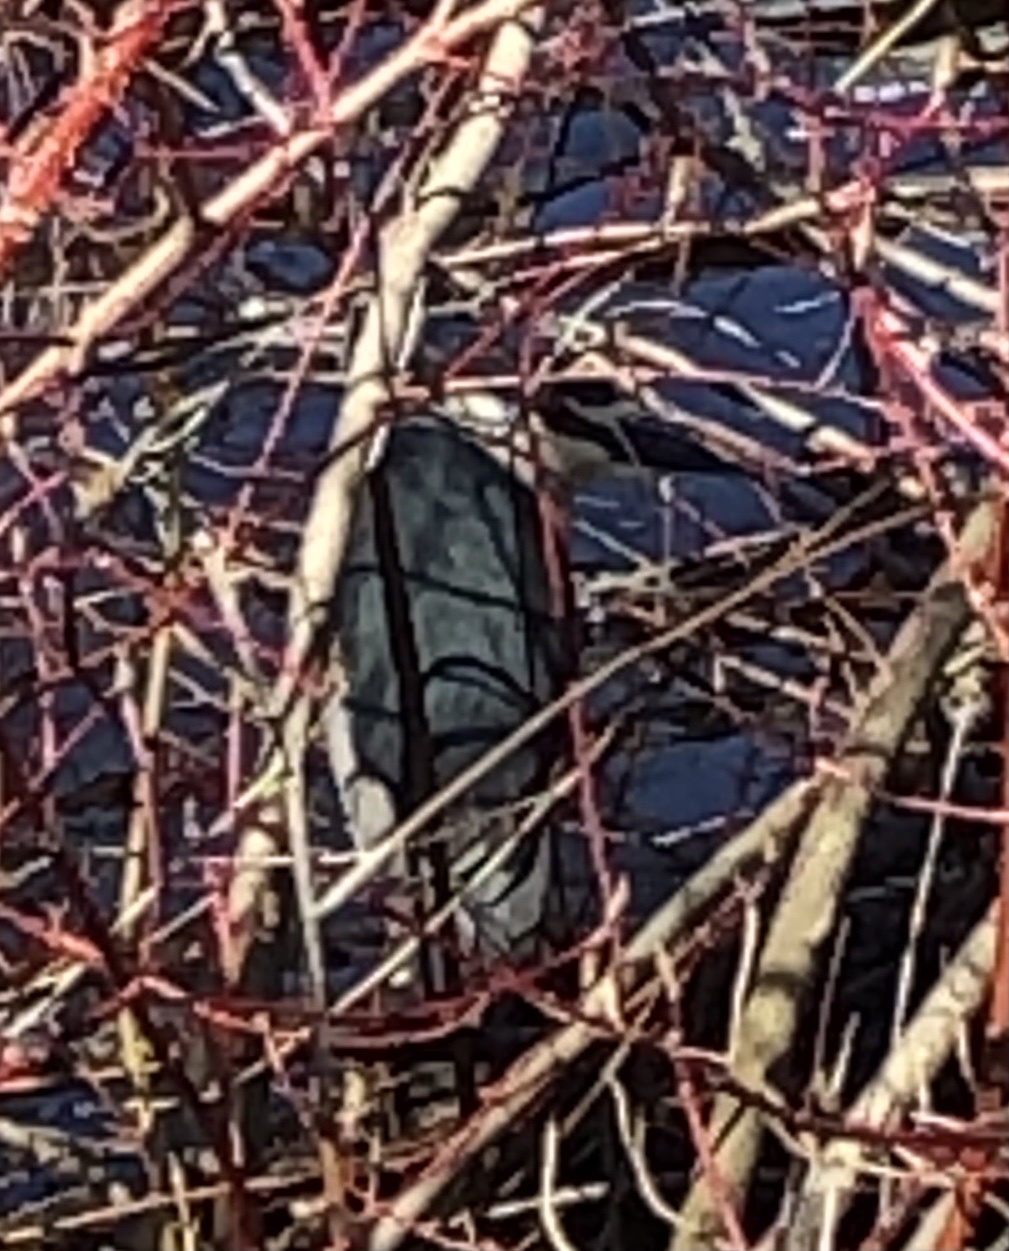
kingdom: Animalia
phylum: Chordata
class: Aves
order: Pelecaniformes
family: Ardeidae
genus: Nycticorax
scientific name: Nycticorax nycticorax
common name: Black-crowned night heron
